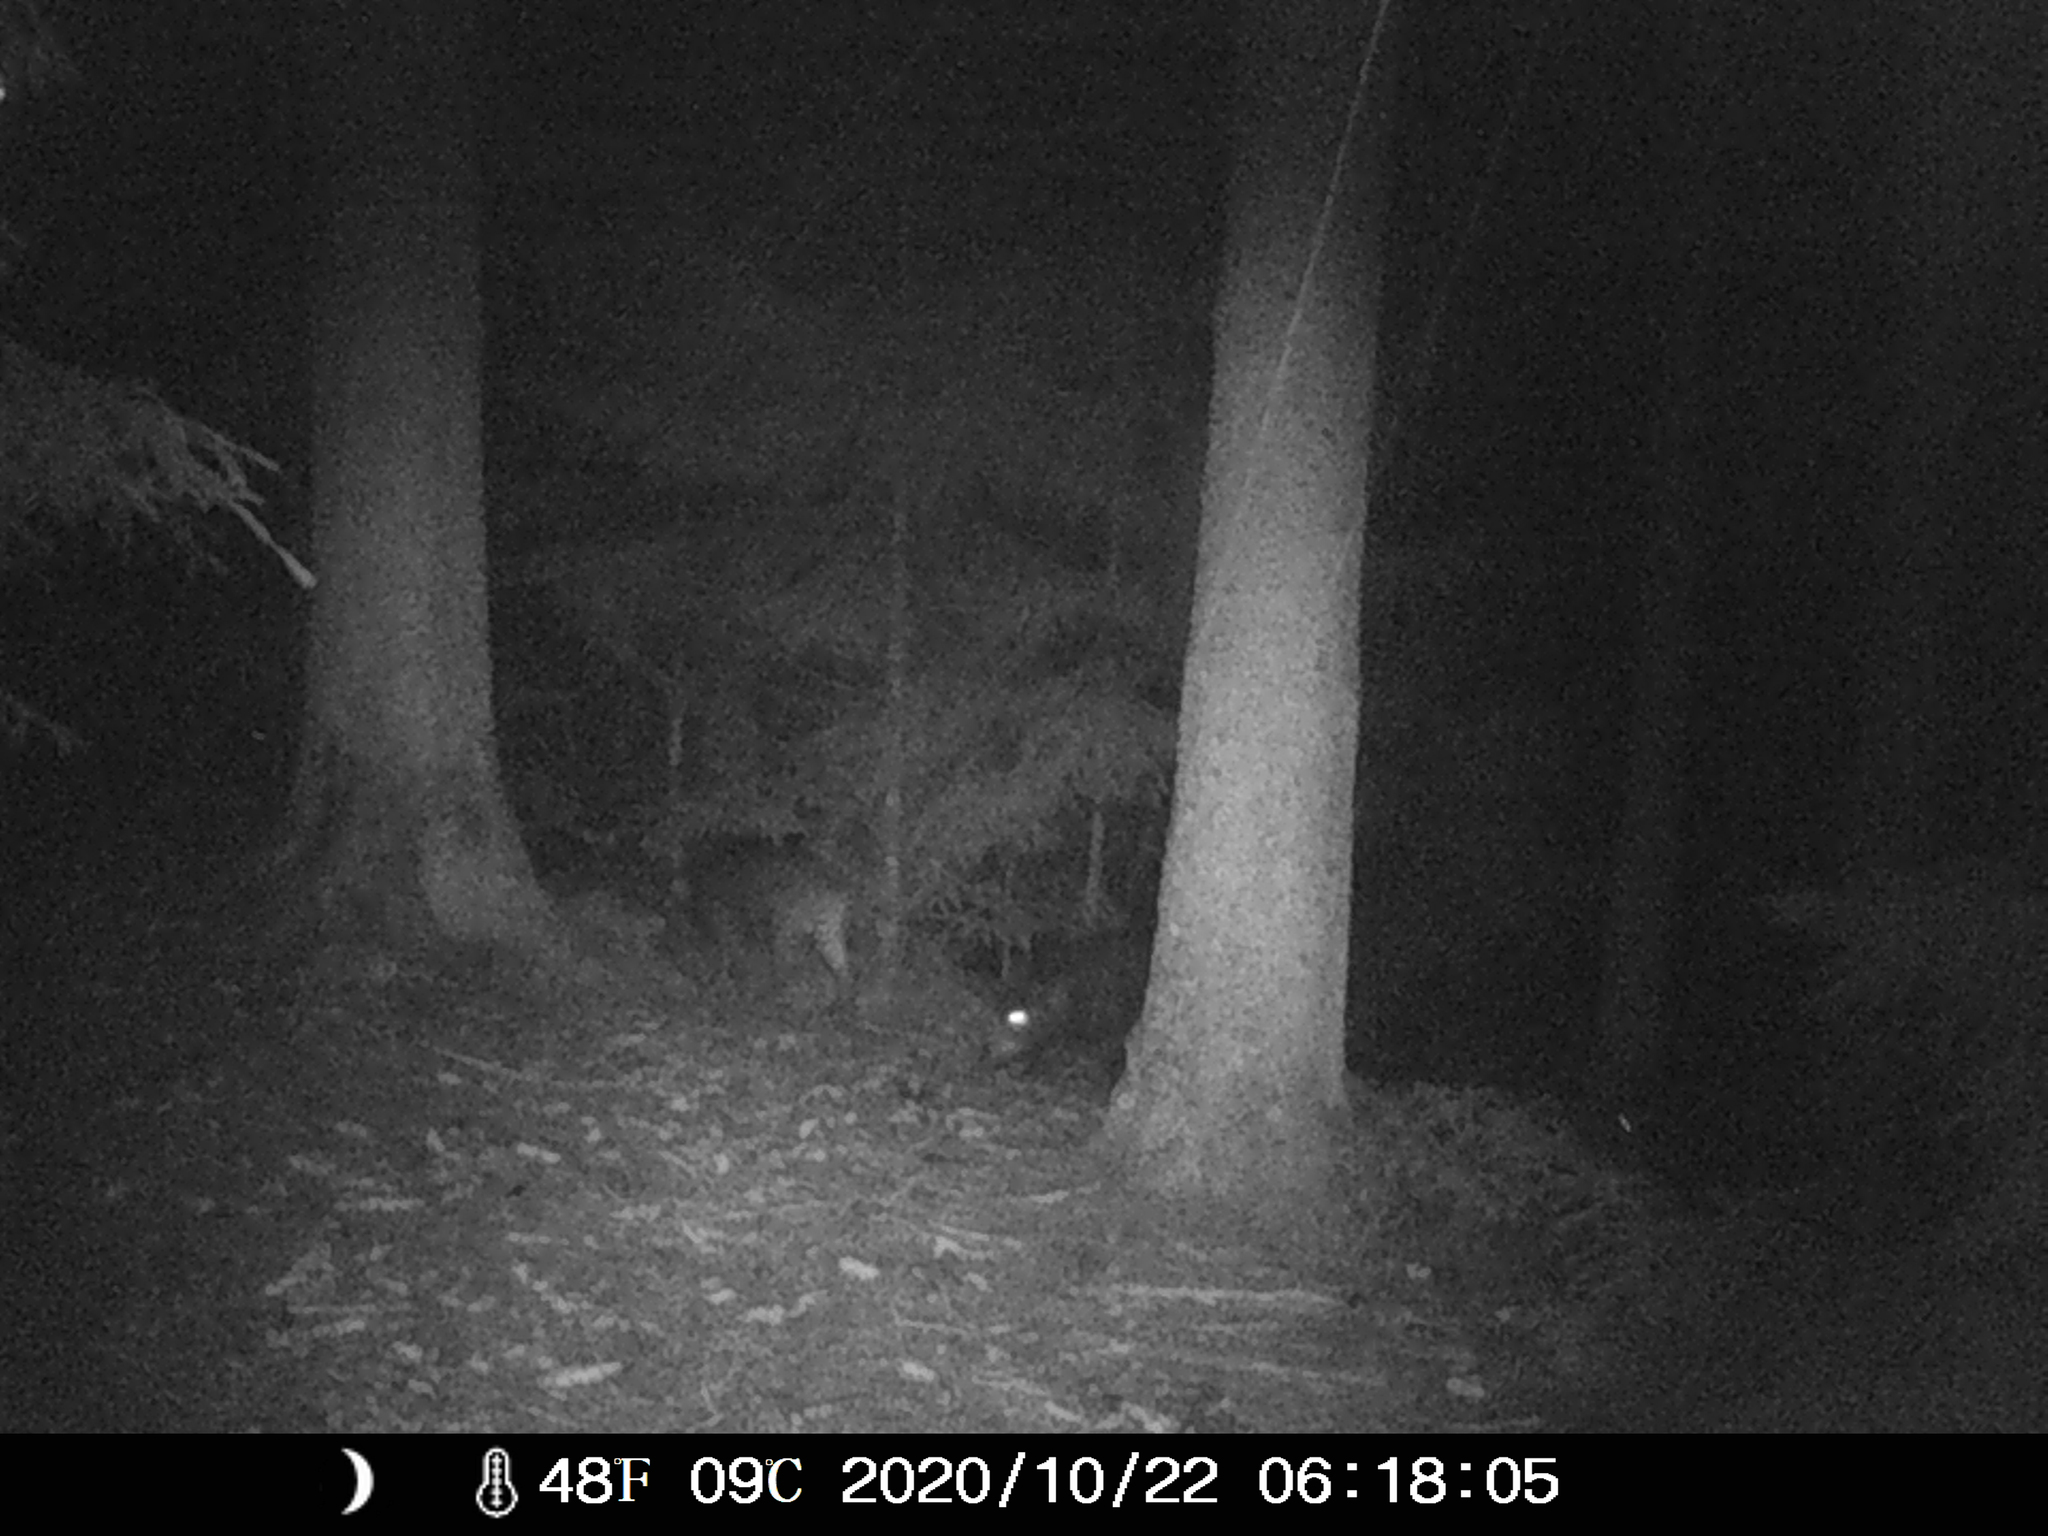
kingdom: Animalia
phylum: Chordata
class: Mammalia
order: Artiodactyla
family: Suidae
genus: Sus
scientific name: Sus scrofa
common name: Wild boar
